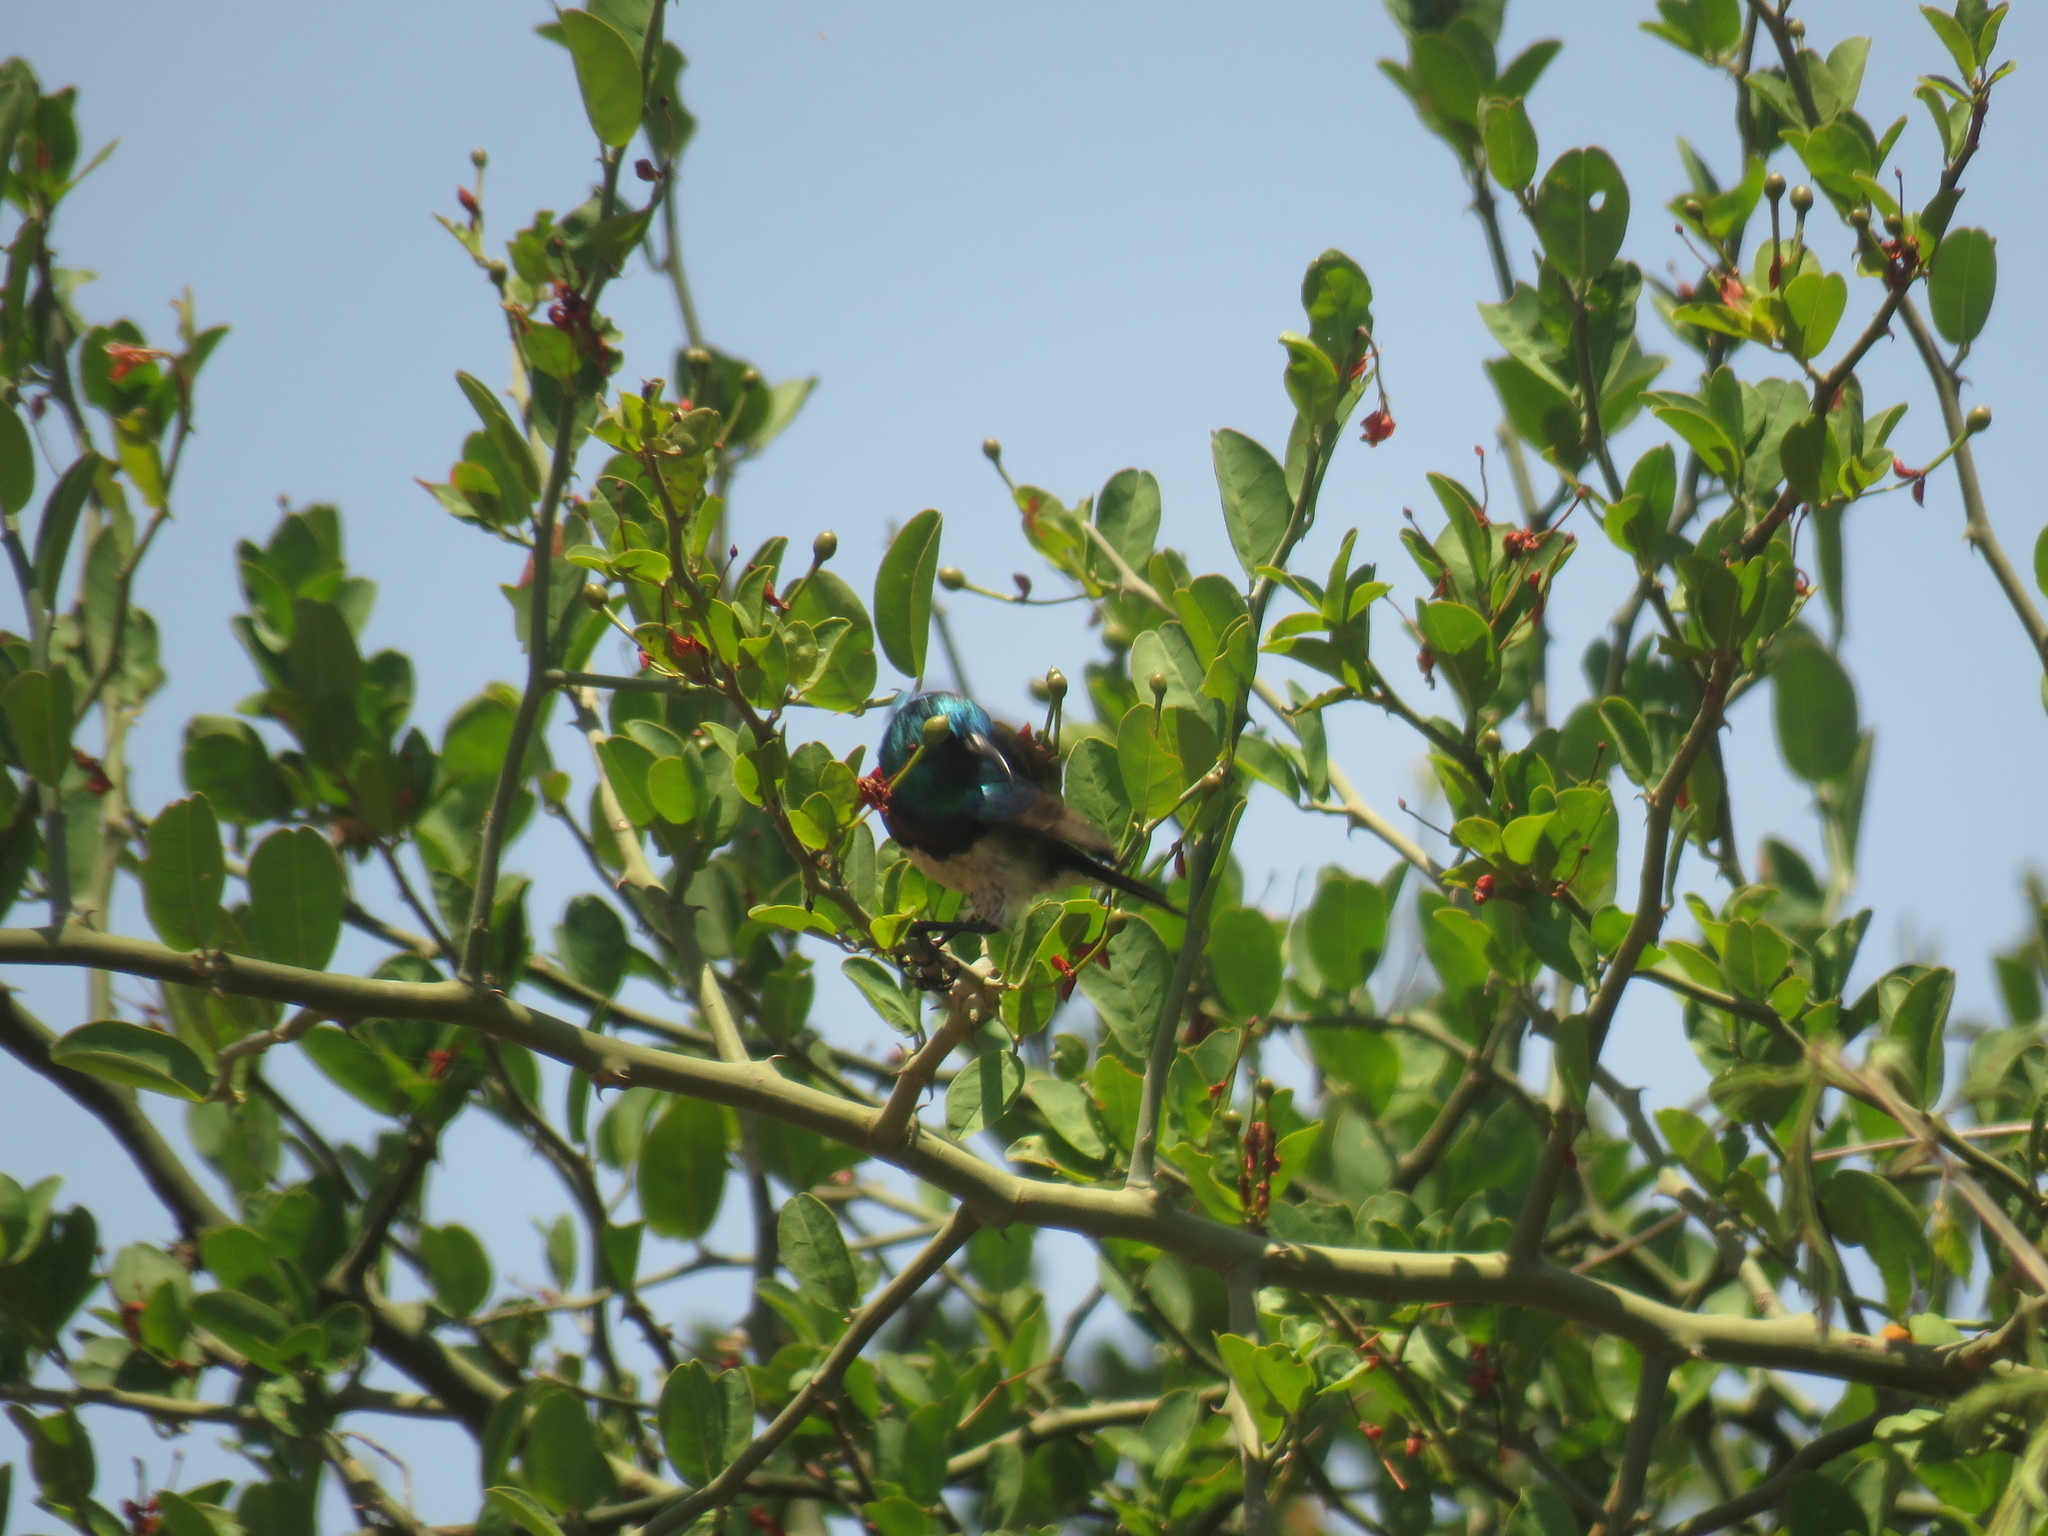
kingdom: Animalia
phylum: Chordata
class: Aves
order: Passeriformes
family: Nectariniidae
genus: Cinnyris
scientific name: Cinnyris talatala
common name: White-bellied sunbird
